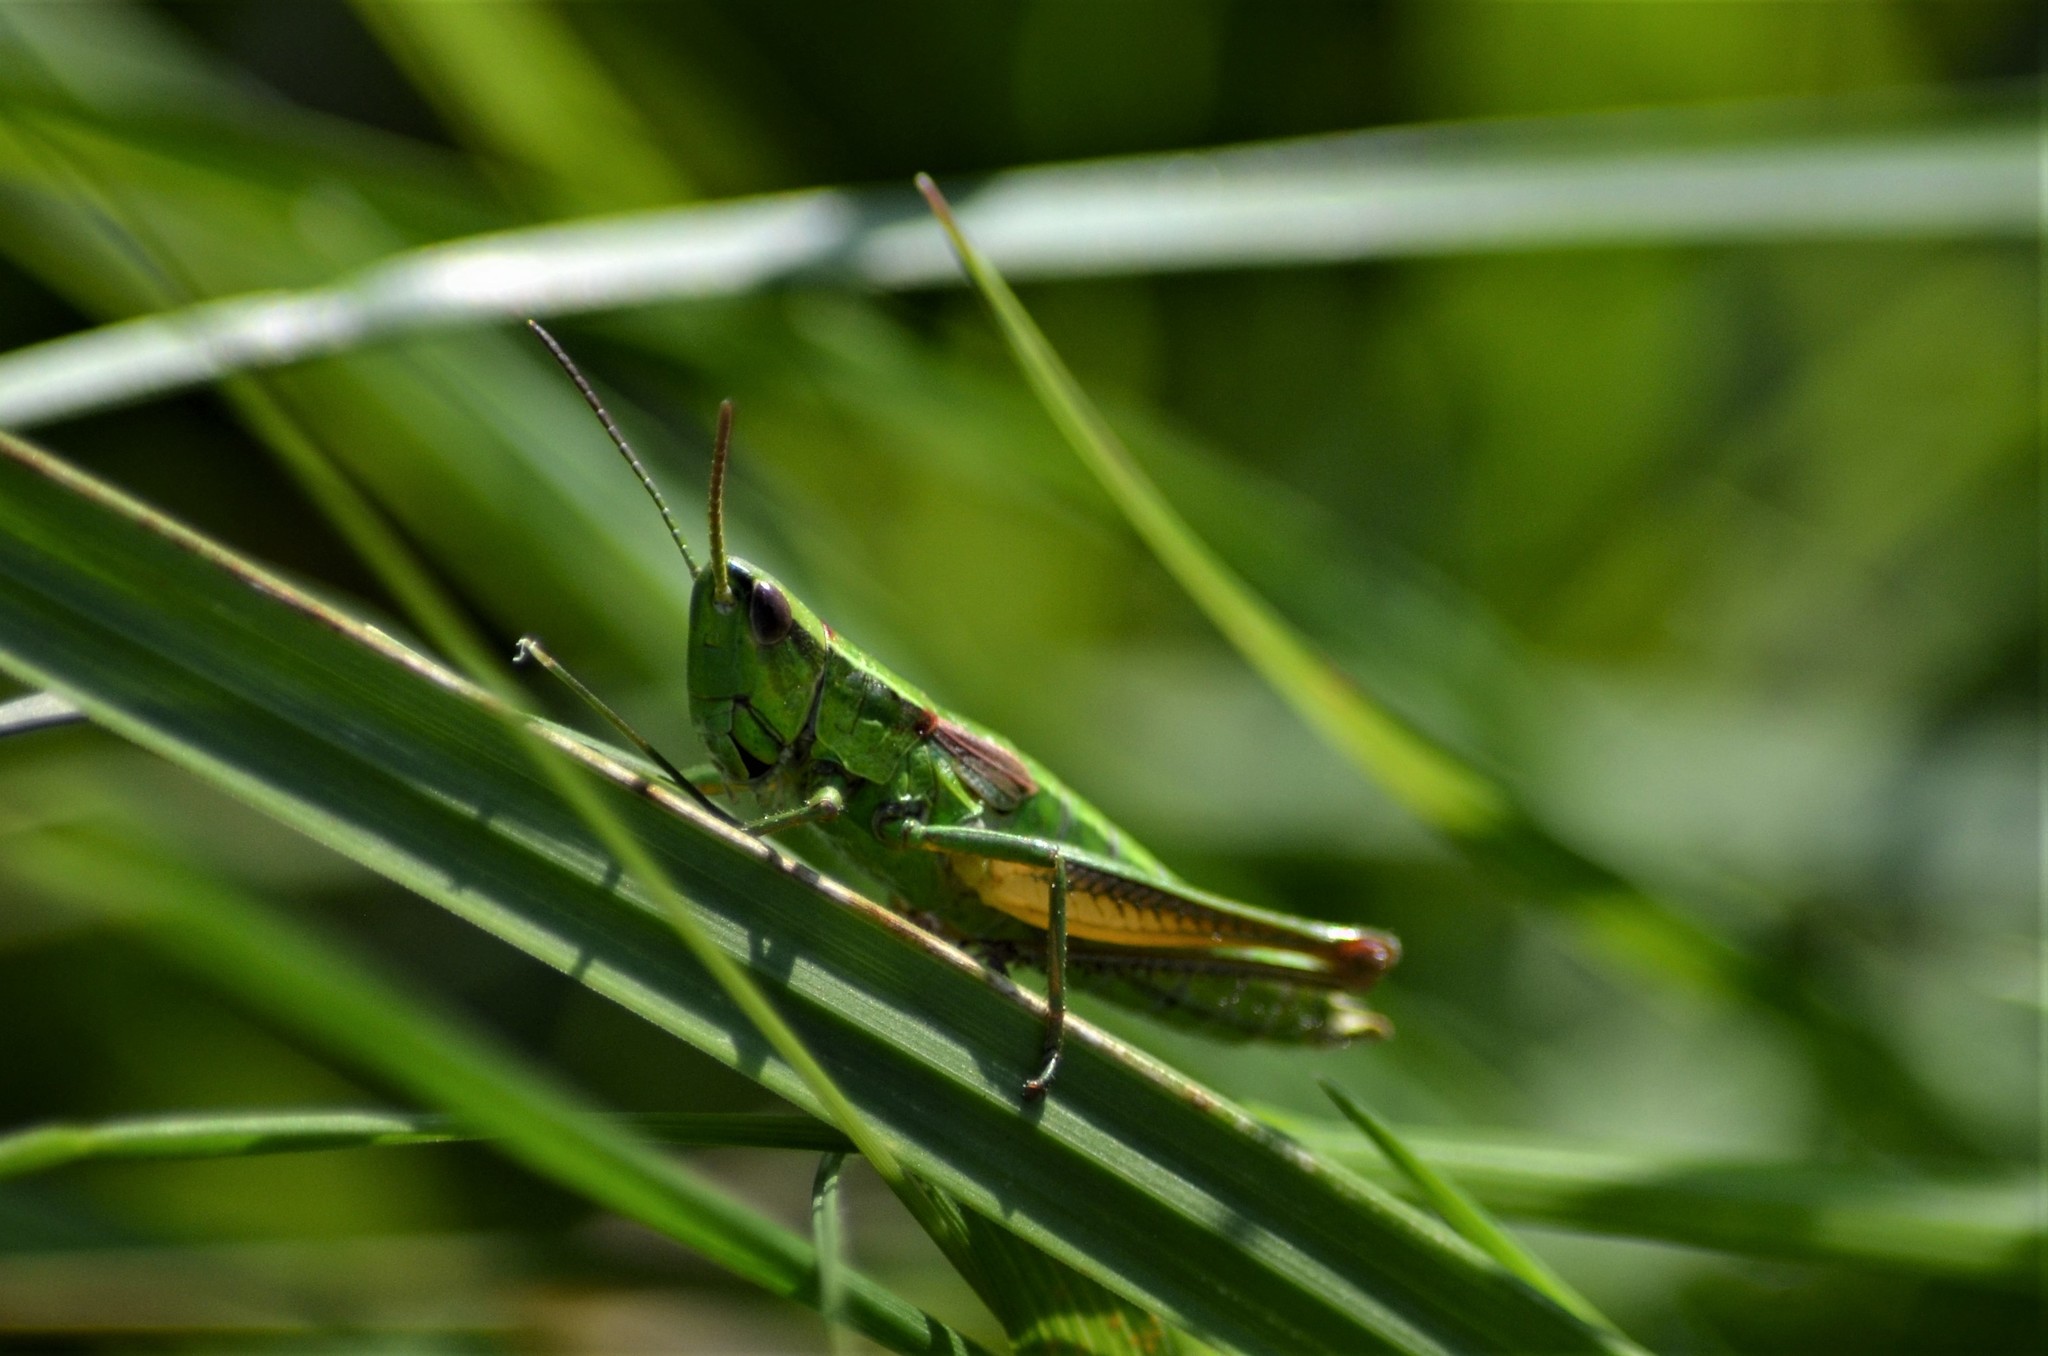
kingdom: Animalia
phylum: Arthropoda
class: Insecta
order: Orthoptera
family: Acrididae
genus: Euthystira
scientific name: Euthystira brachyptera
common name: Small gold grasshopper
